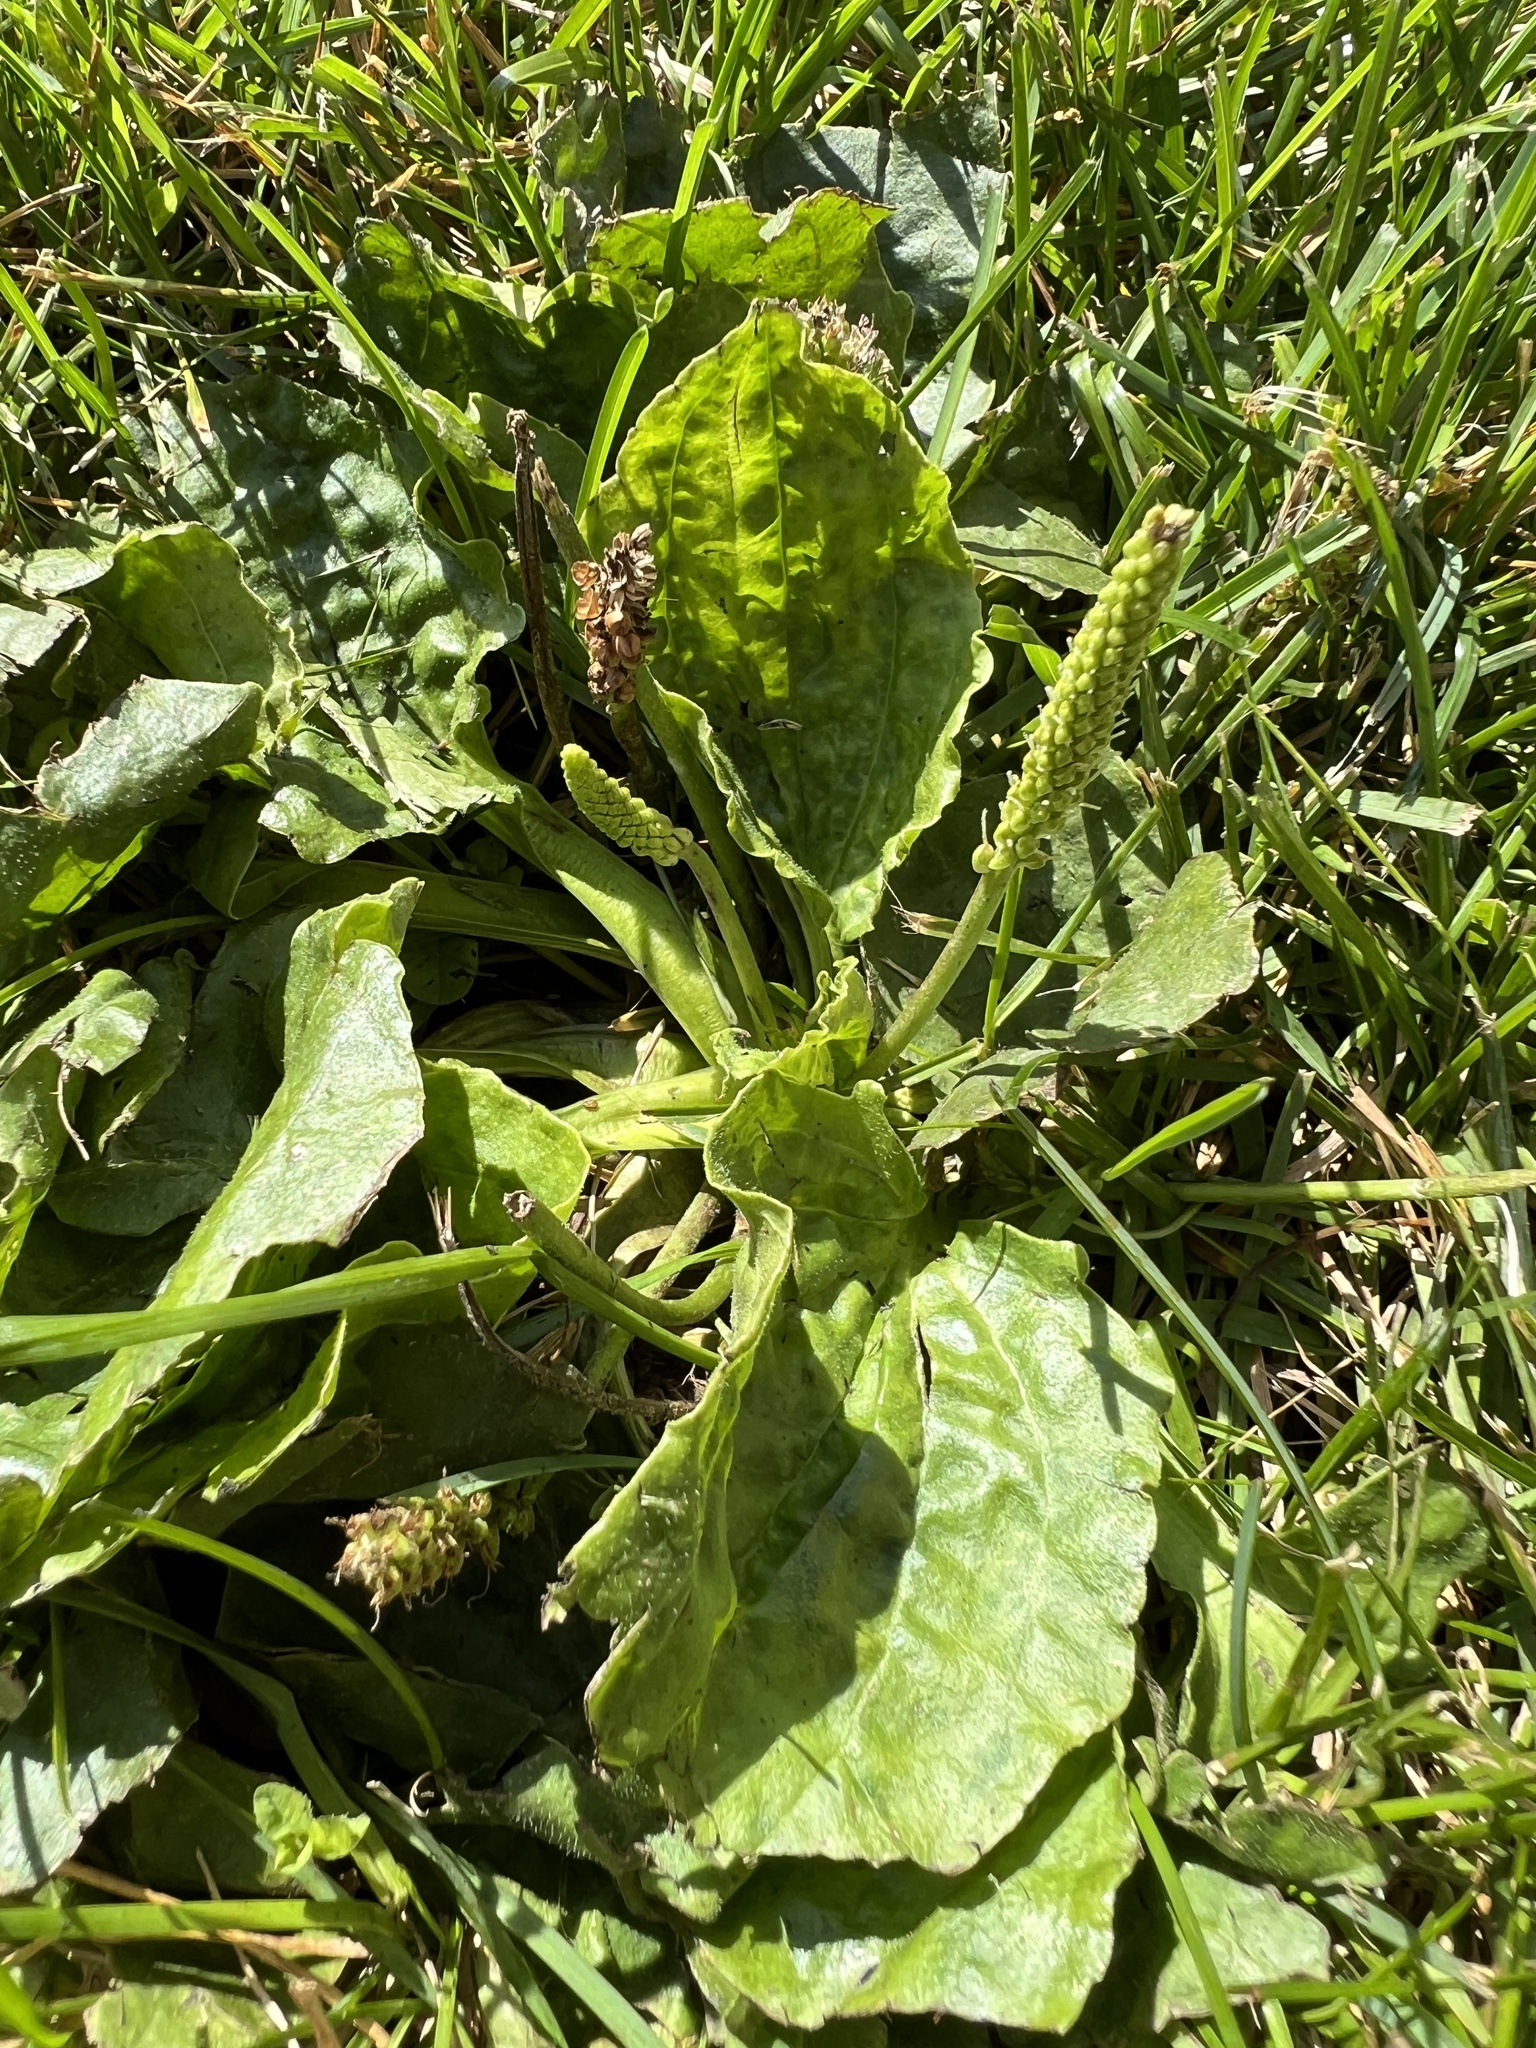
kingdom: Plantae
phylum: Tracheophyta
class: Magnoliopsida
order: Lamiales
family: Plantaginaceae
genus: Plantago
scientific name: Plantago major
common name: Common plantain
